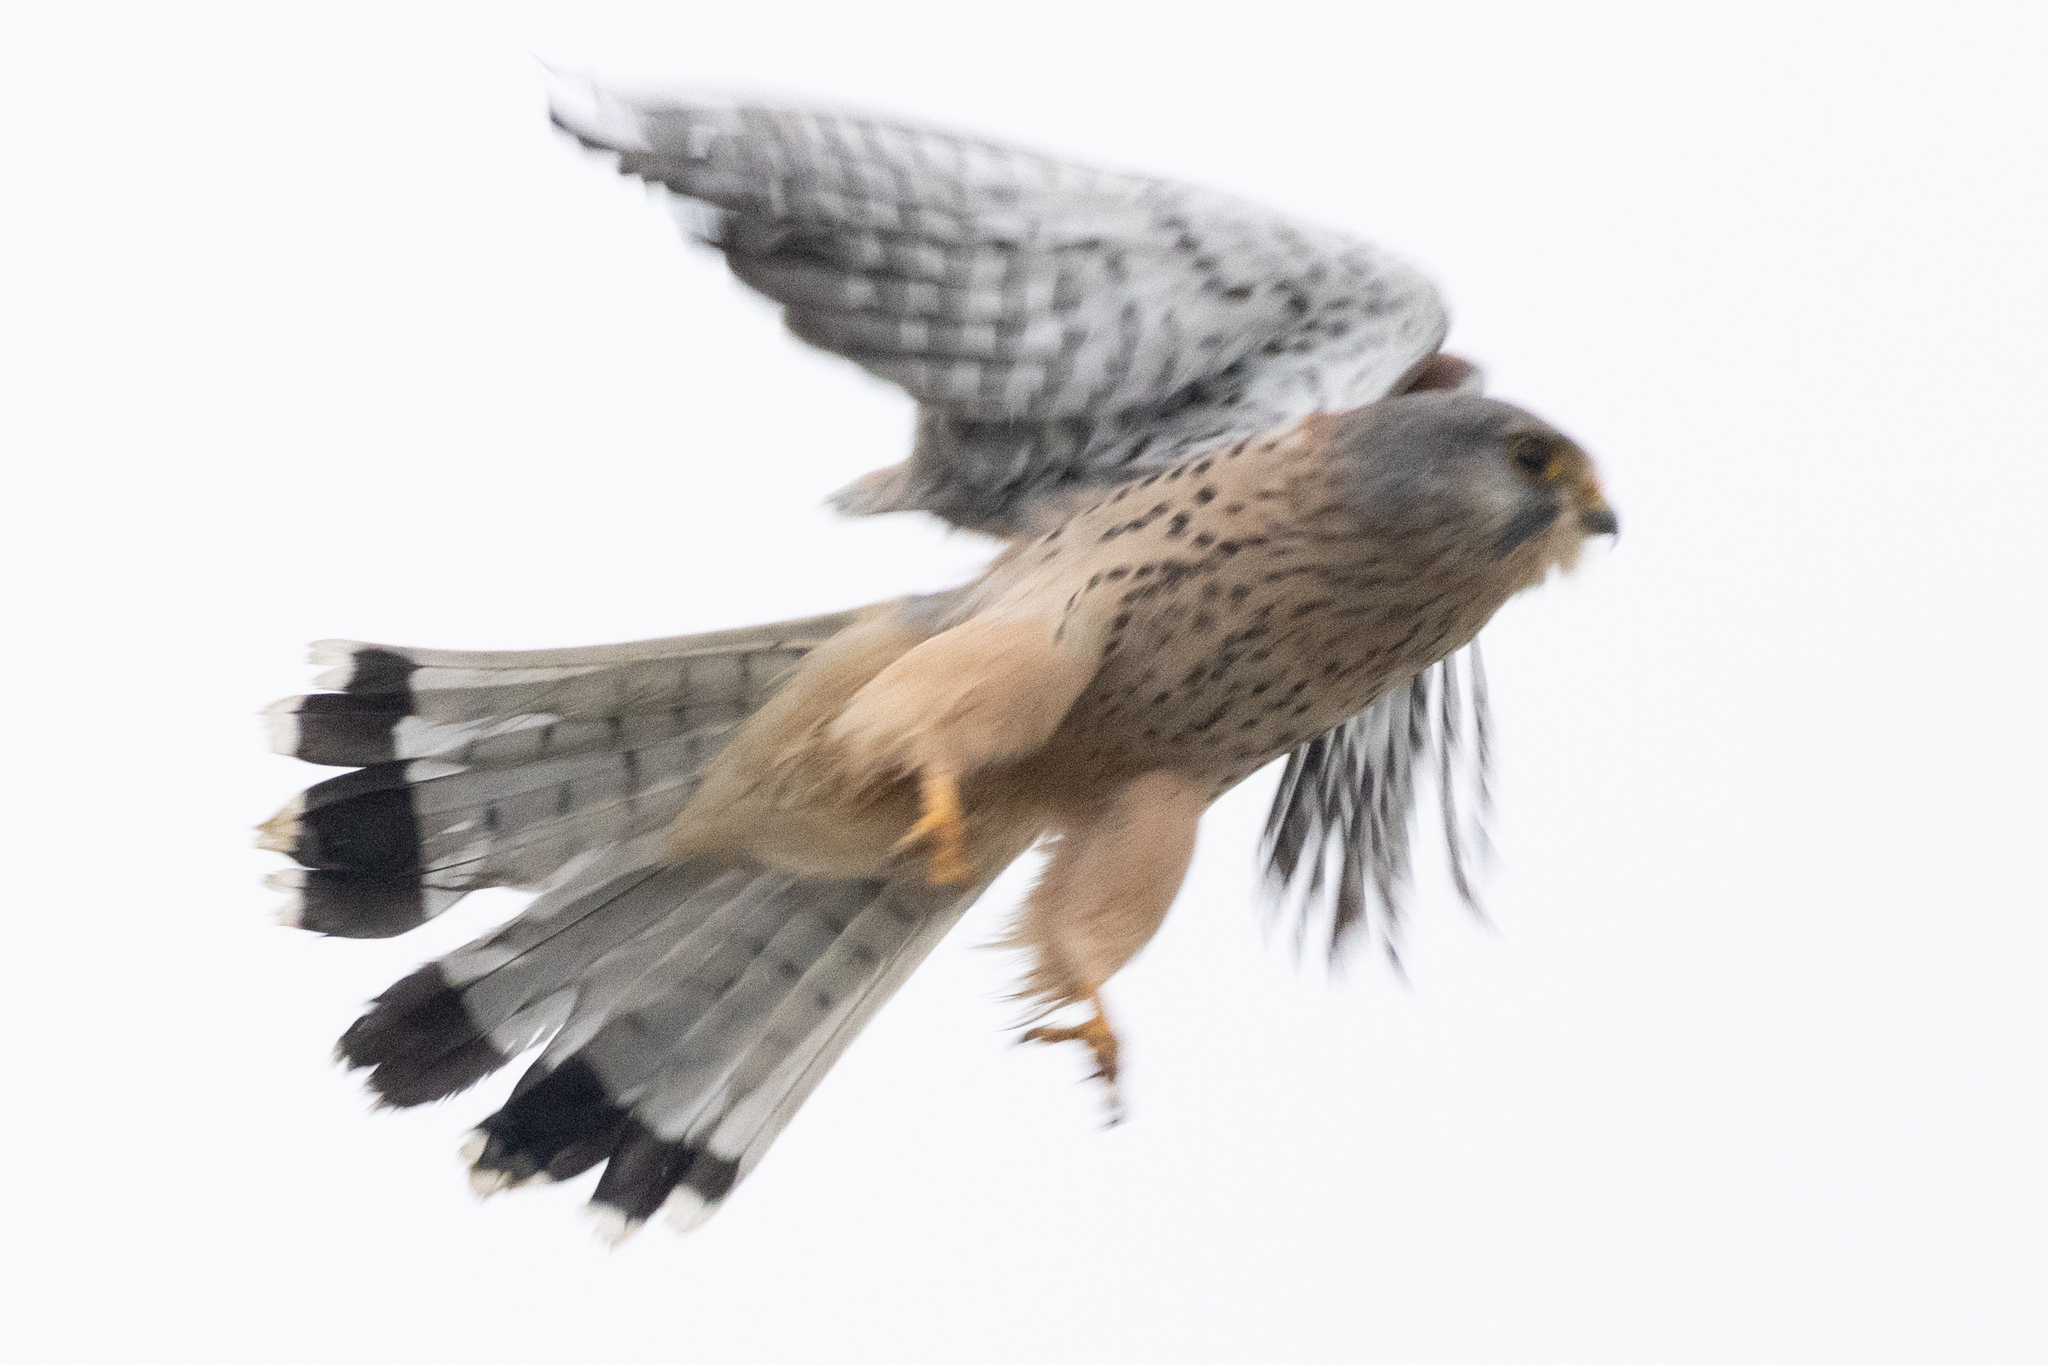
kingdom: Animalia
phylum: Chordata
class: Aves
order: Falconiformes
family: Falconidae
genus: Falco
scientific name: Falco tinnunculus
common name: Common kestrel
